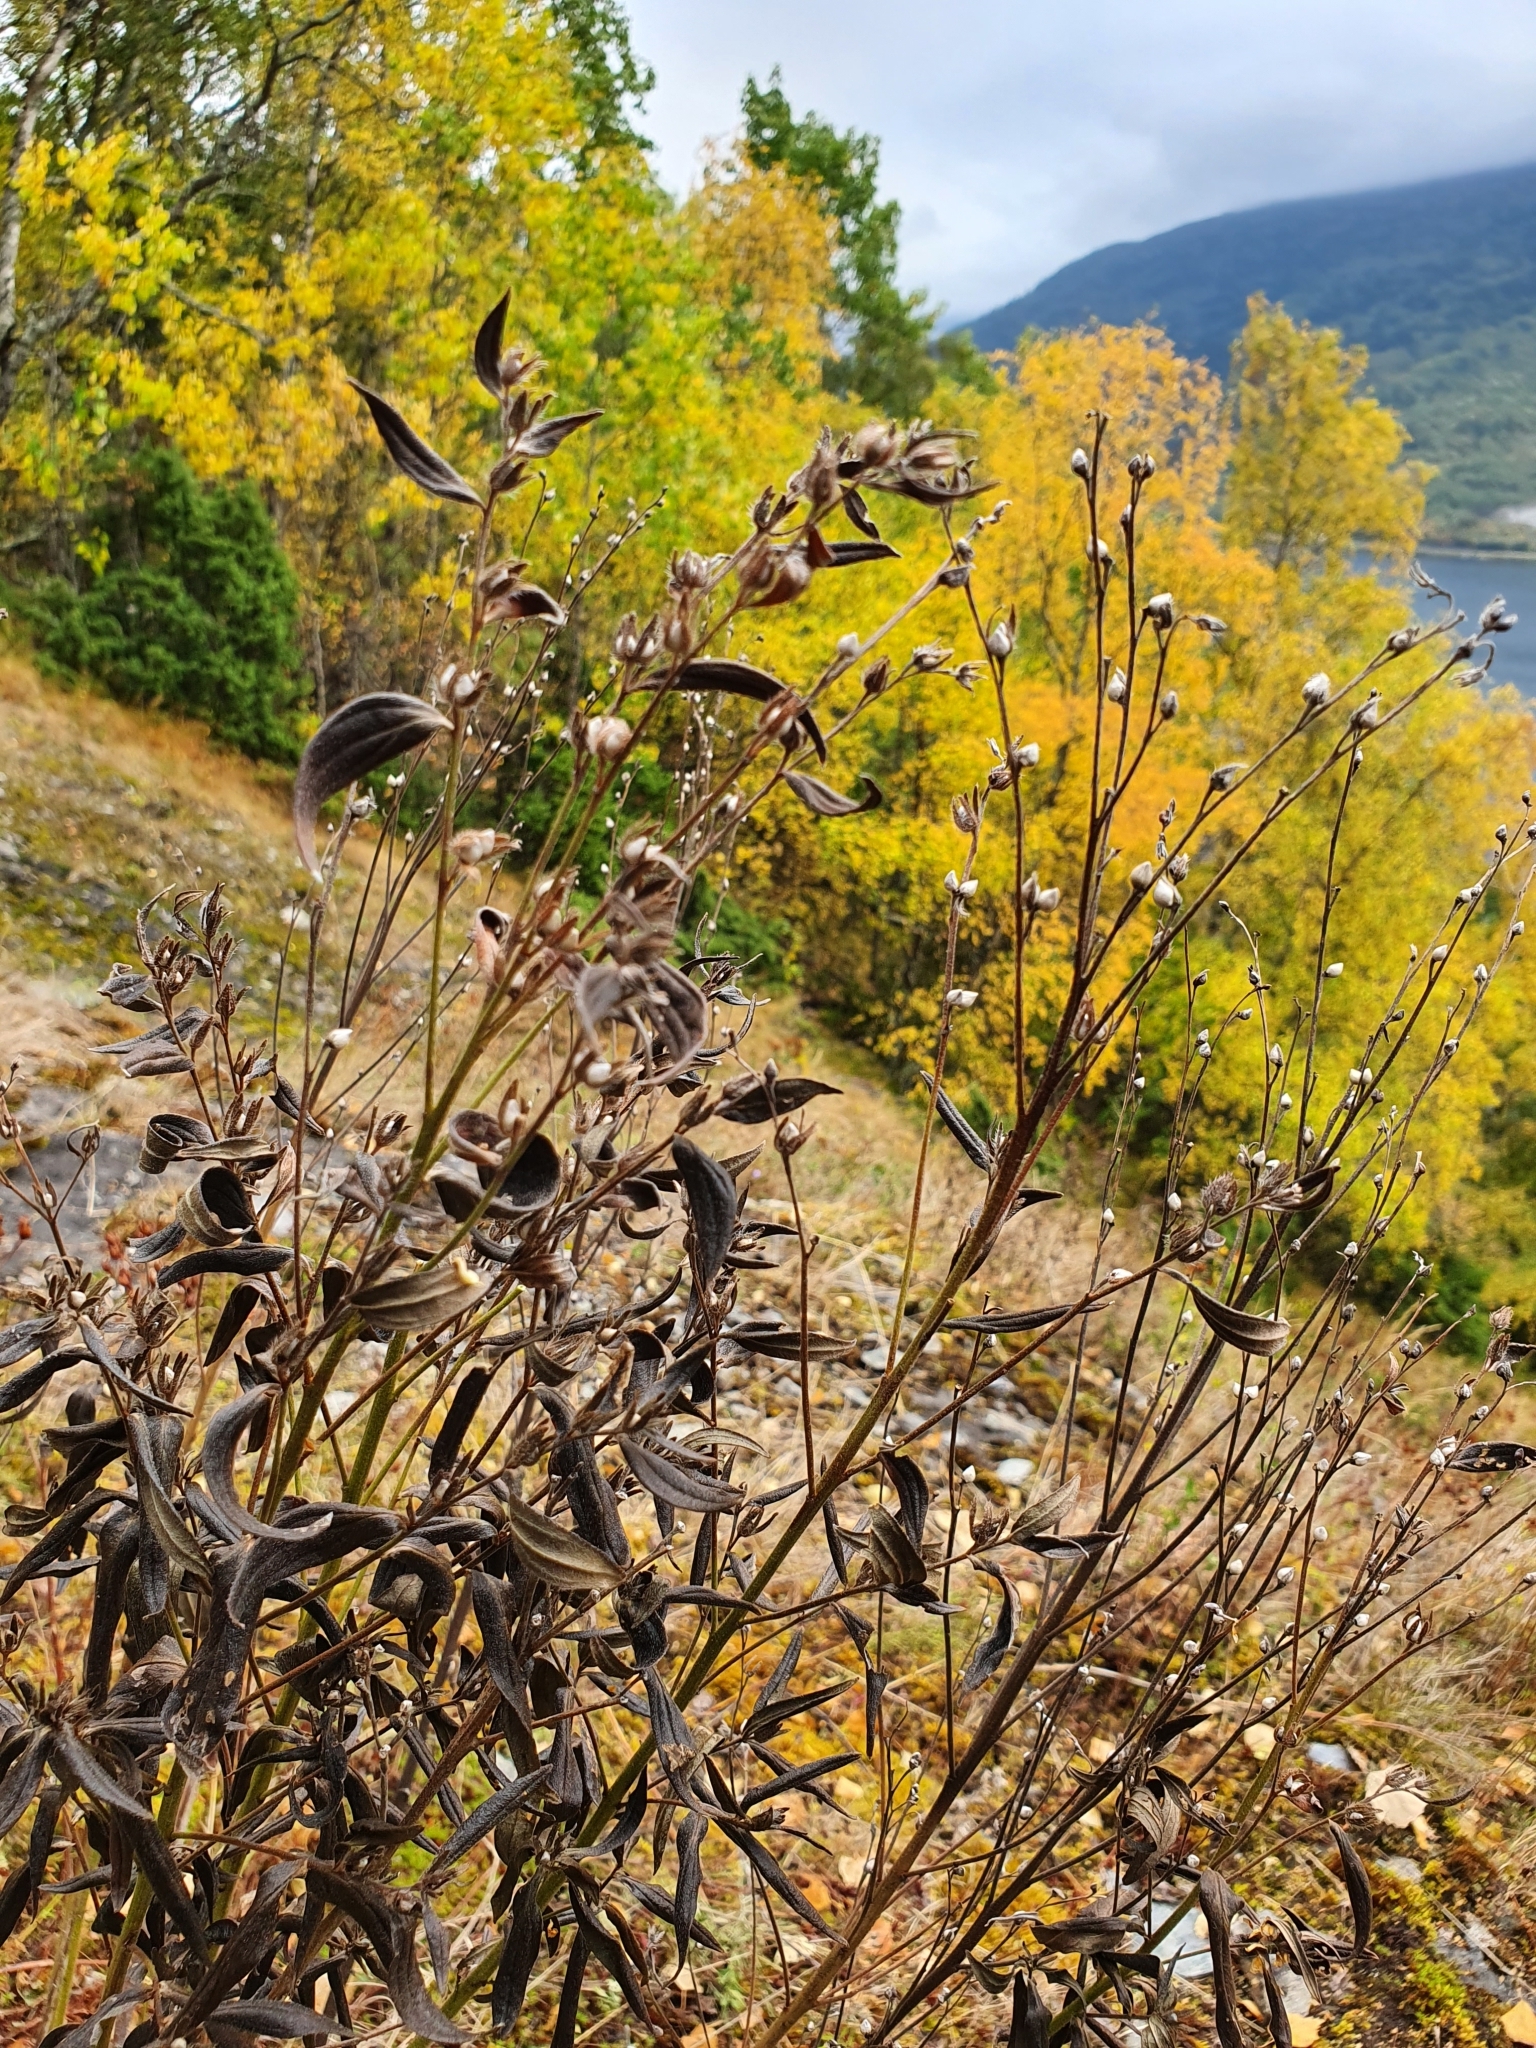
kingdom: Plantae
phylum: Tracheophyta
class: Magnoliopsida
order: Boraginales
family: Boraginaceae
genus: Lithospermum
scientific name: Lithospermum officinale
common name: Common gromwell
